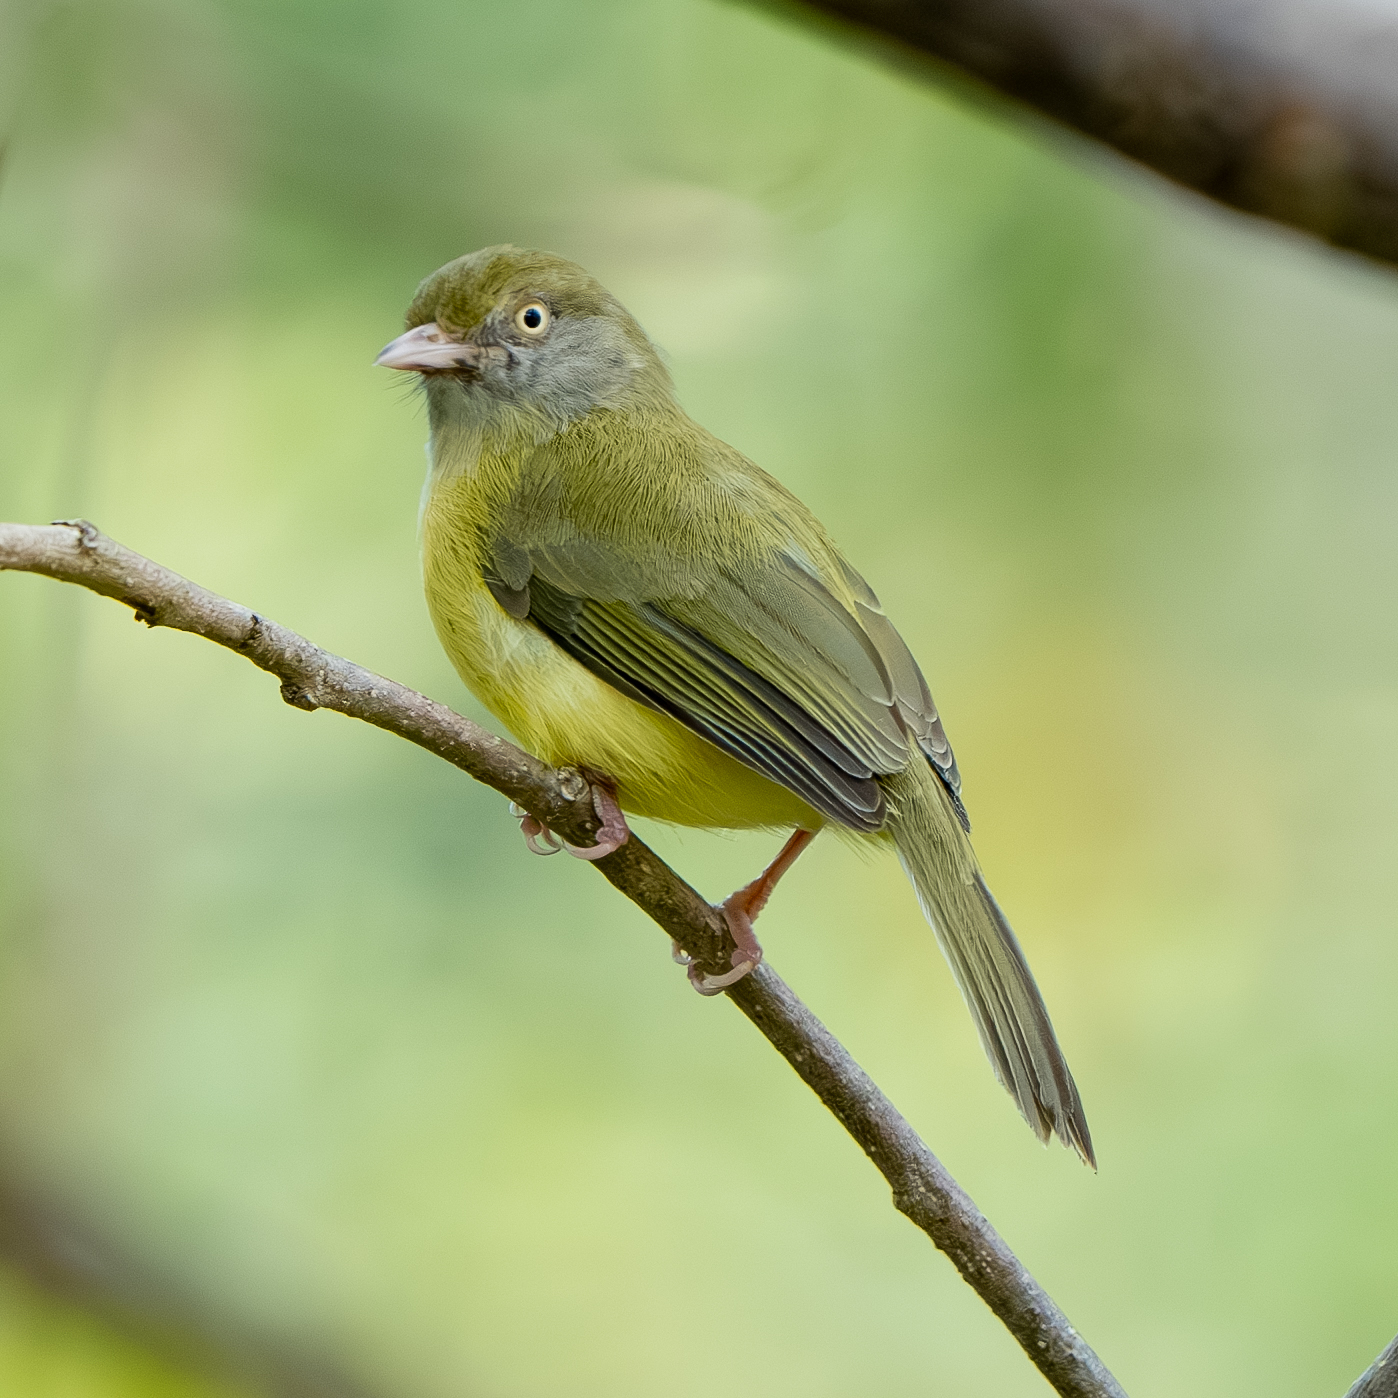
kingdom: Animalia
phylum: Chordata
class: Aves
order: Passeriformes
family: Vireonidae
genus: Hylophilus
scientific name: Hylophilus flavipes
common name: Scrub greenlet
